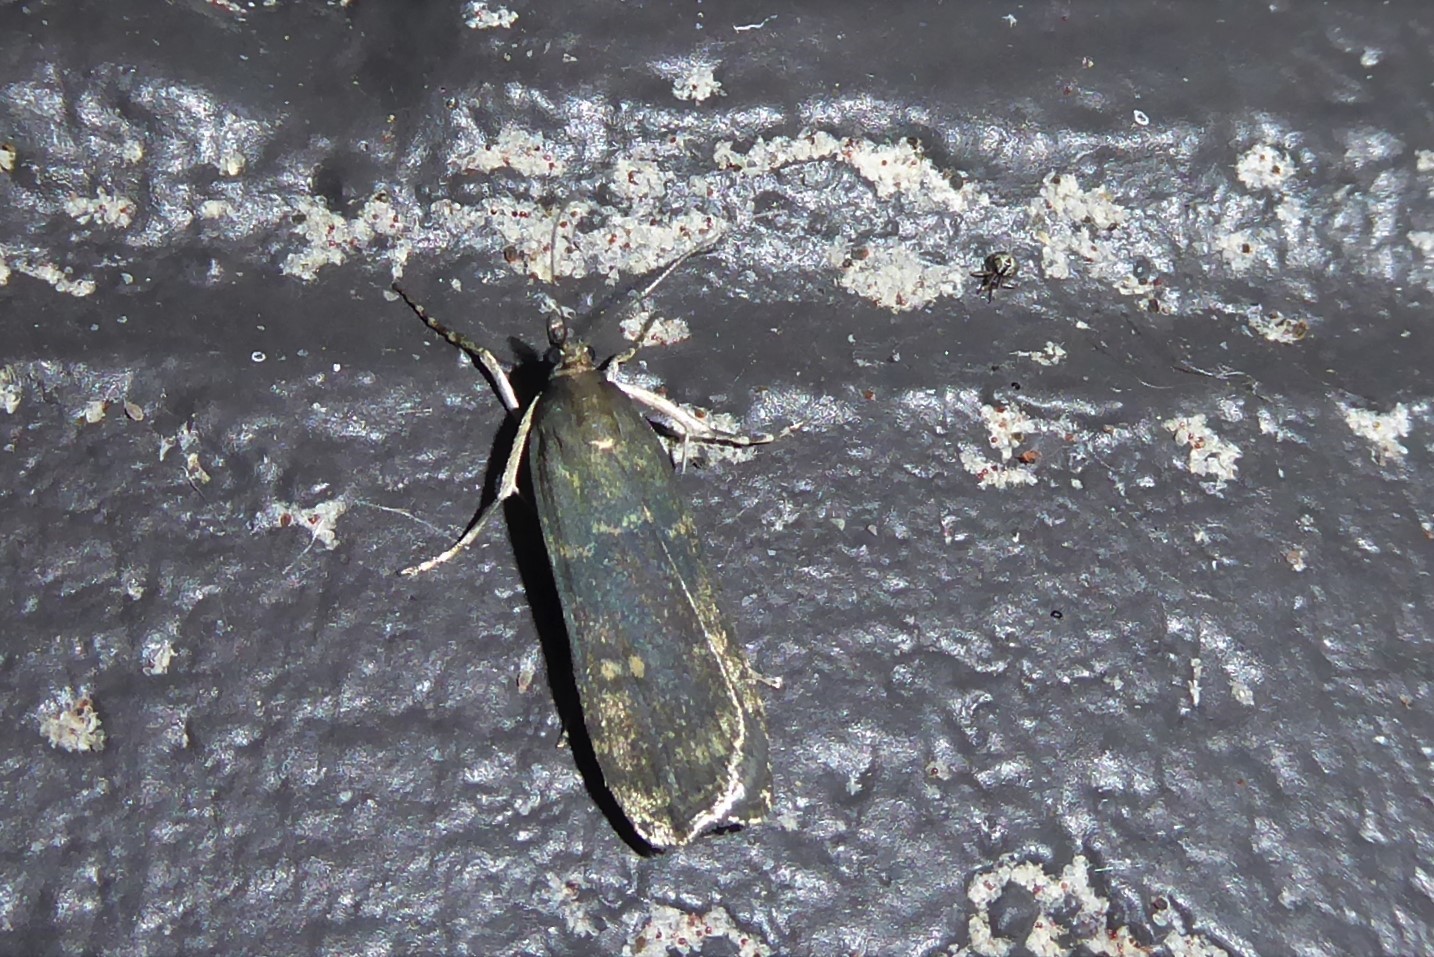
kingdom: Animalia
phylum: Arthropoda
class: Insecta
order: Lepidoptera
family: Crambidae
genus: Eudonia
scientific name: Eudonia cataxesta
